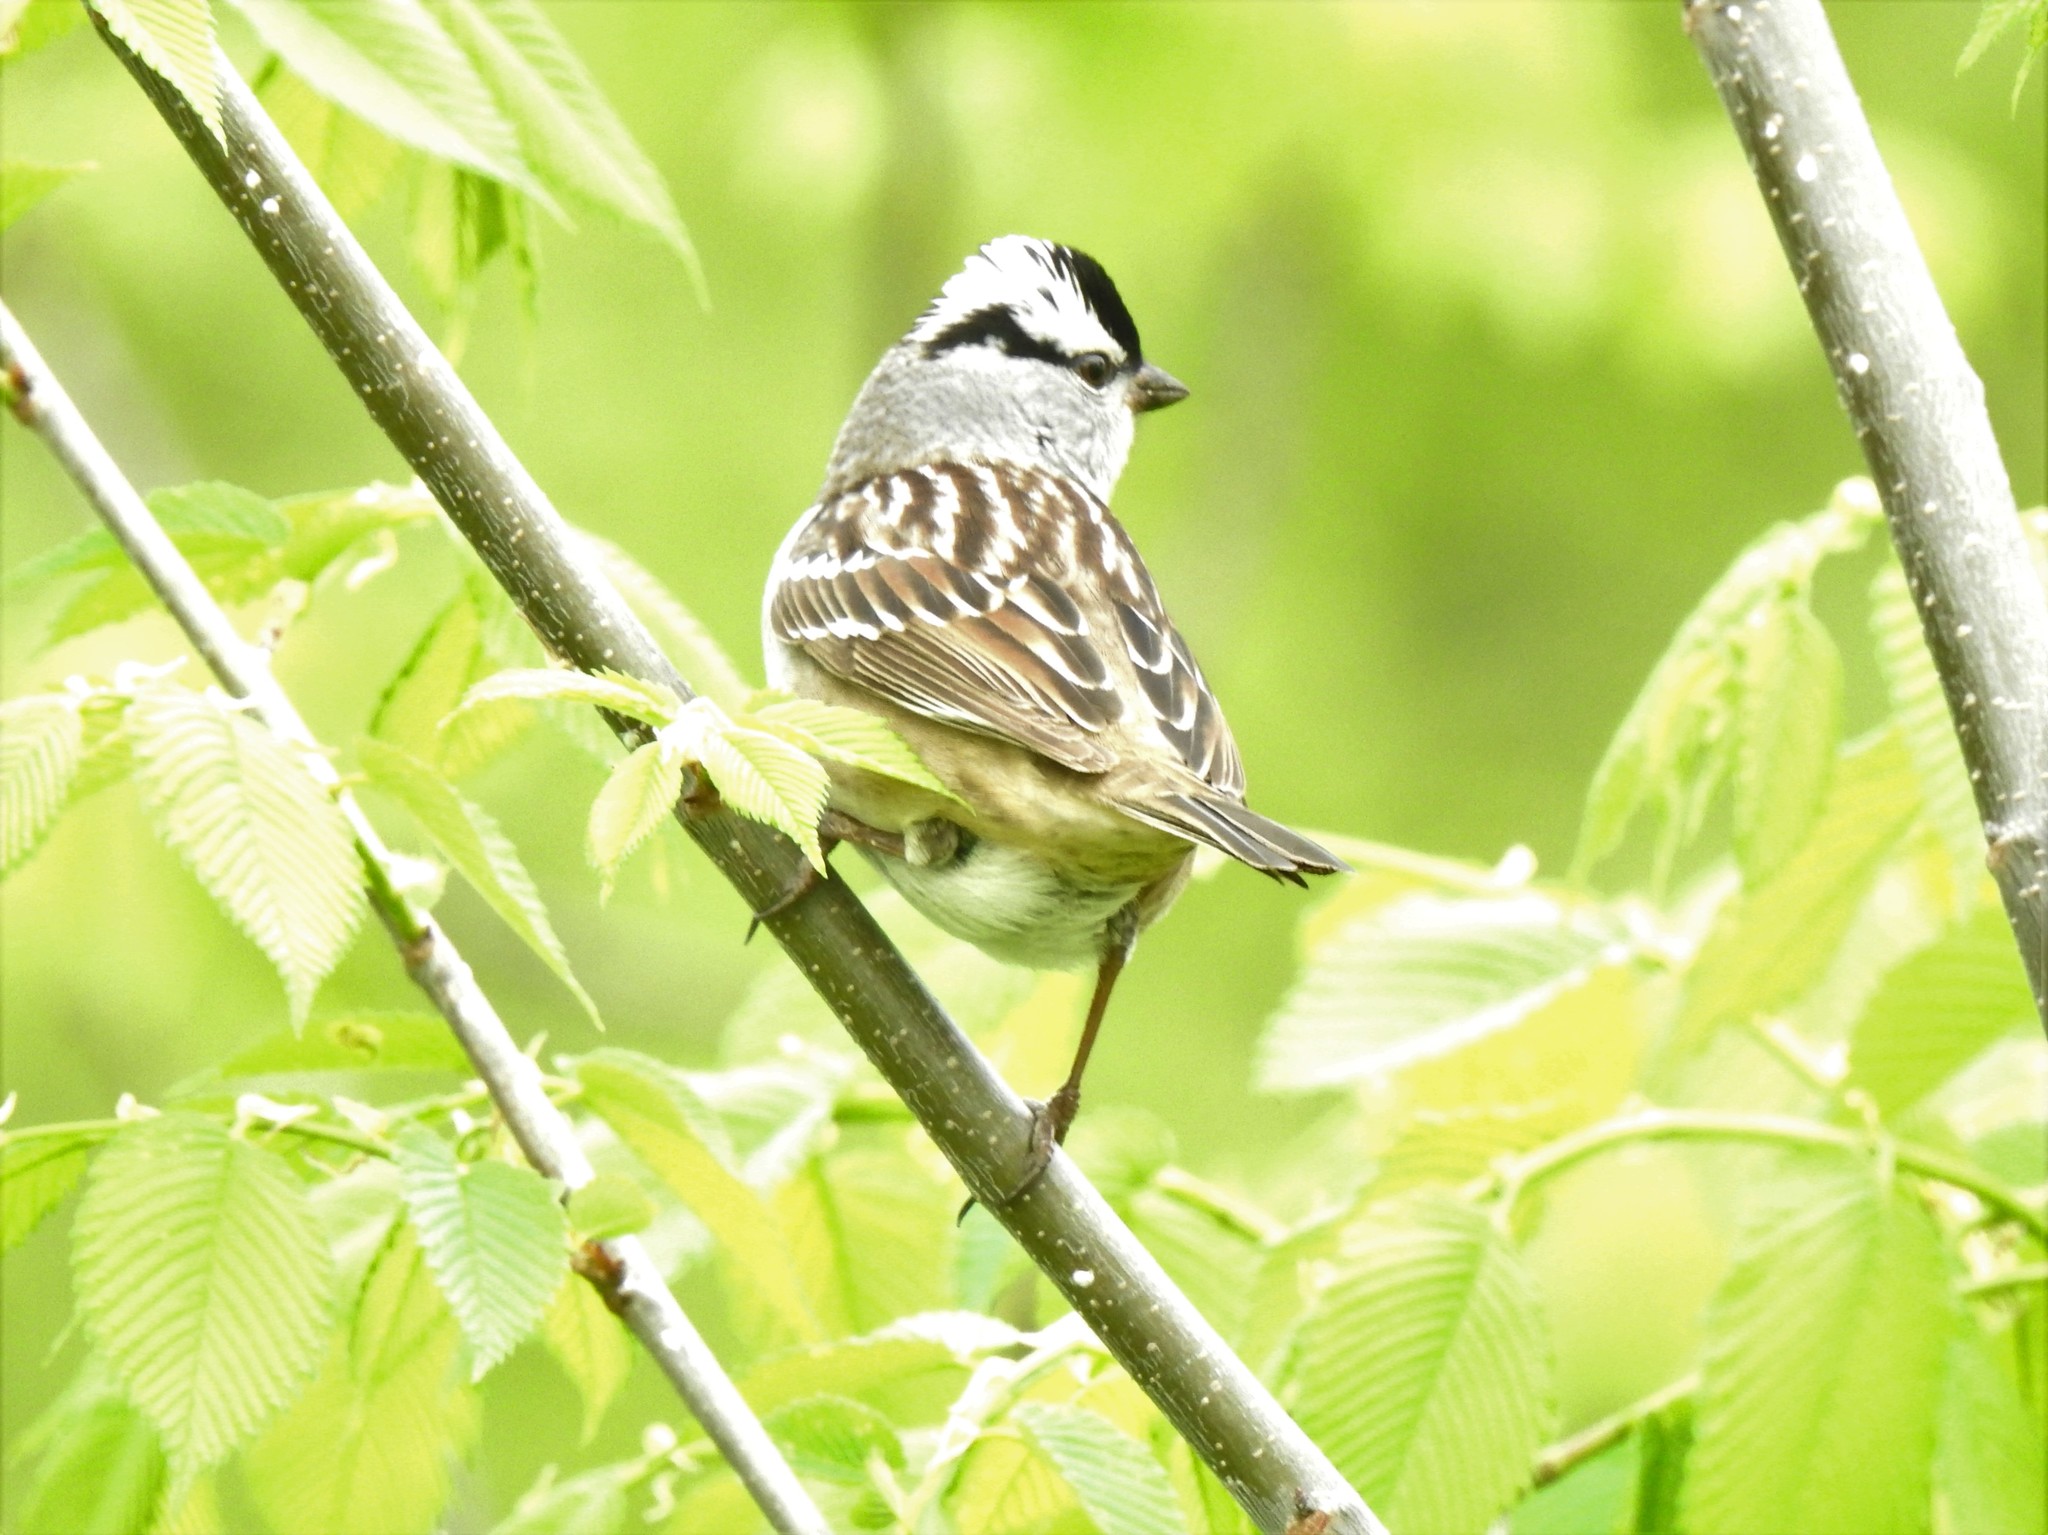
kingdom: Animalia
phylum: Chordata
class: Aves
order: Passeriformes
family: Passerellidae
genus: Zonotrichia
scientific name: Zonotrichia leucophrys
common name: White-crowned sparrow
